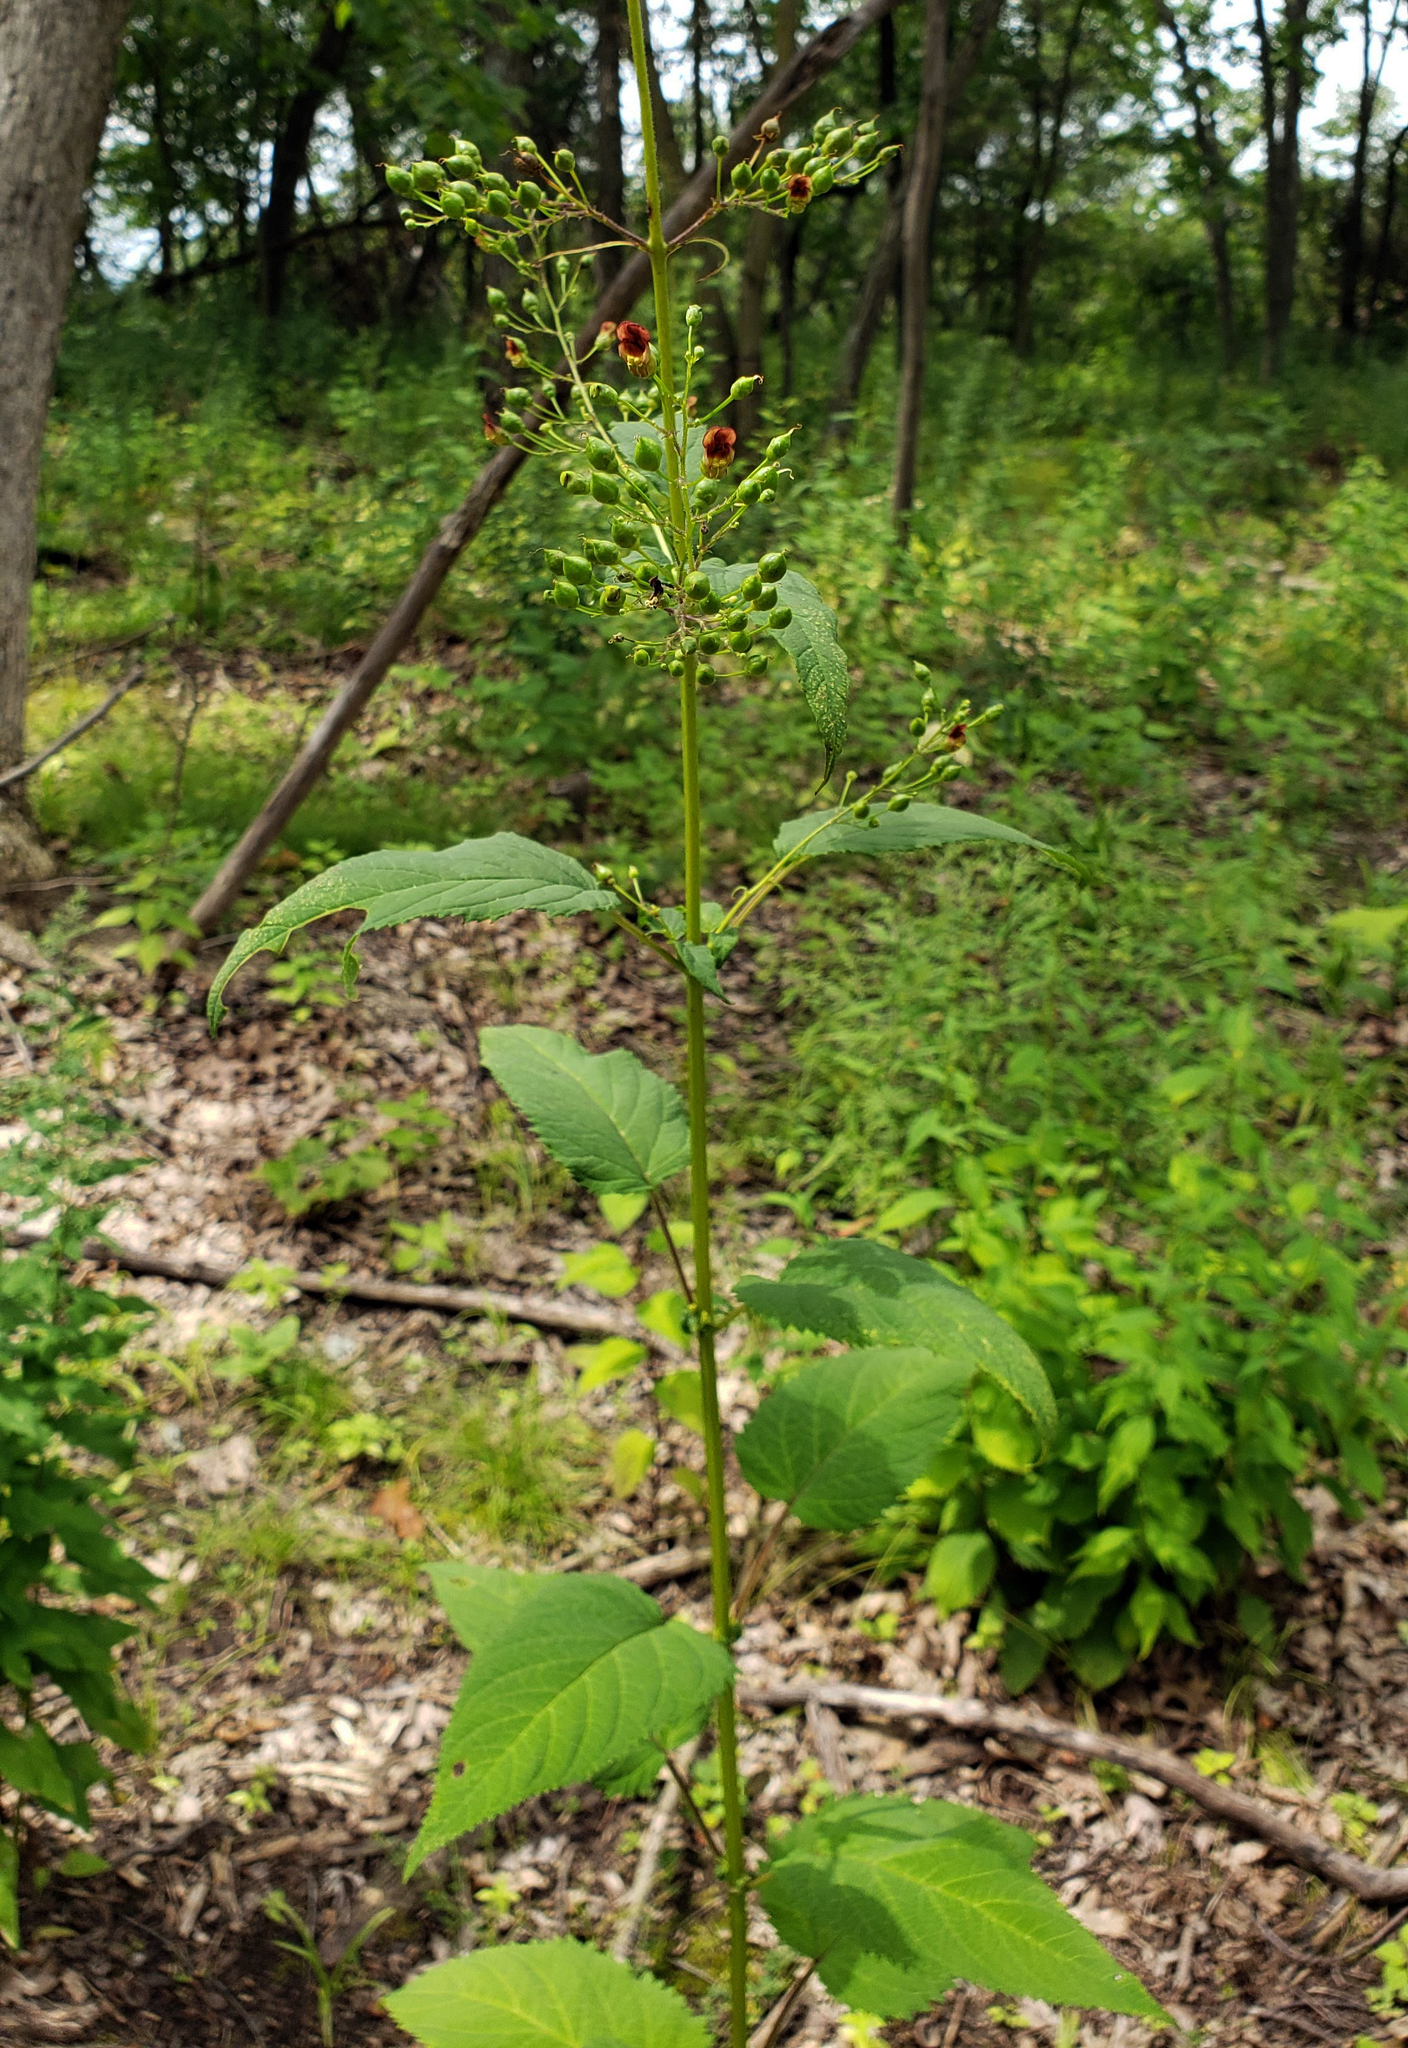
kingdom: Plantae
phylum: Tracheophyta
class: Magnoliopsida
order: Lamiales
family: Scrophulariaceae
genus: Scrophularia
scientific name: Scrophularia marilandica
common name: Eastern figwort
